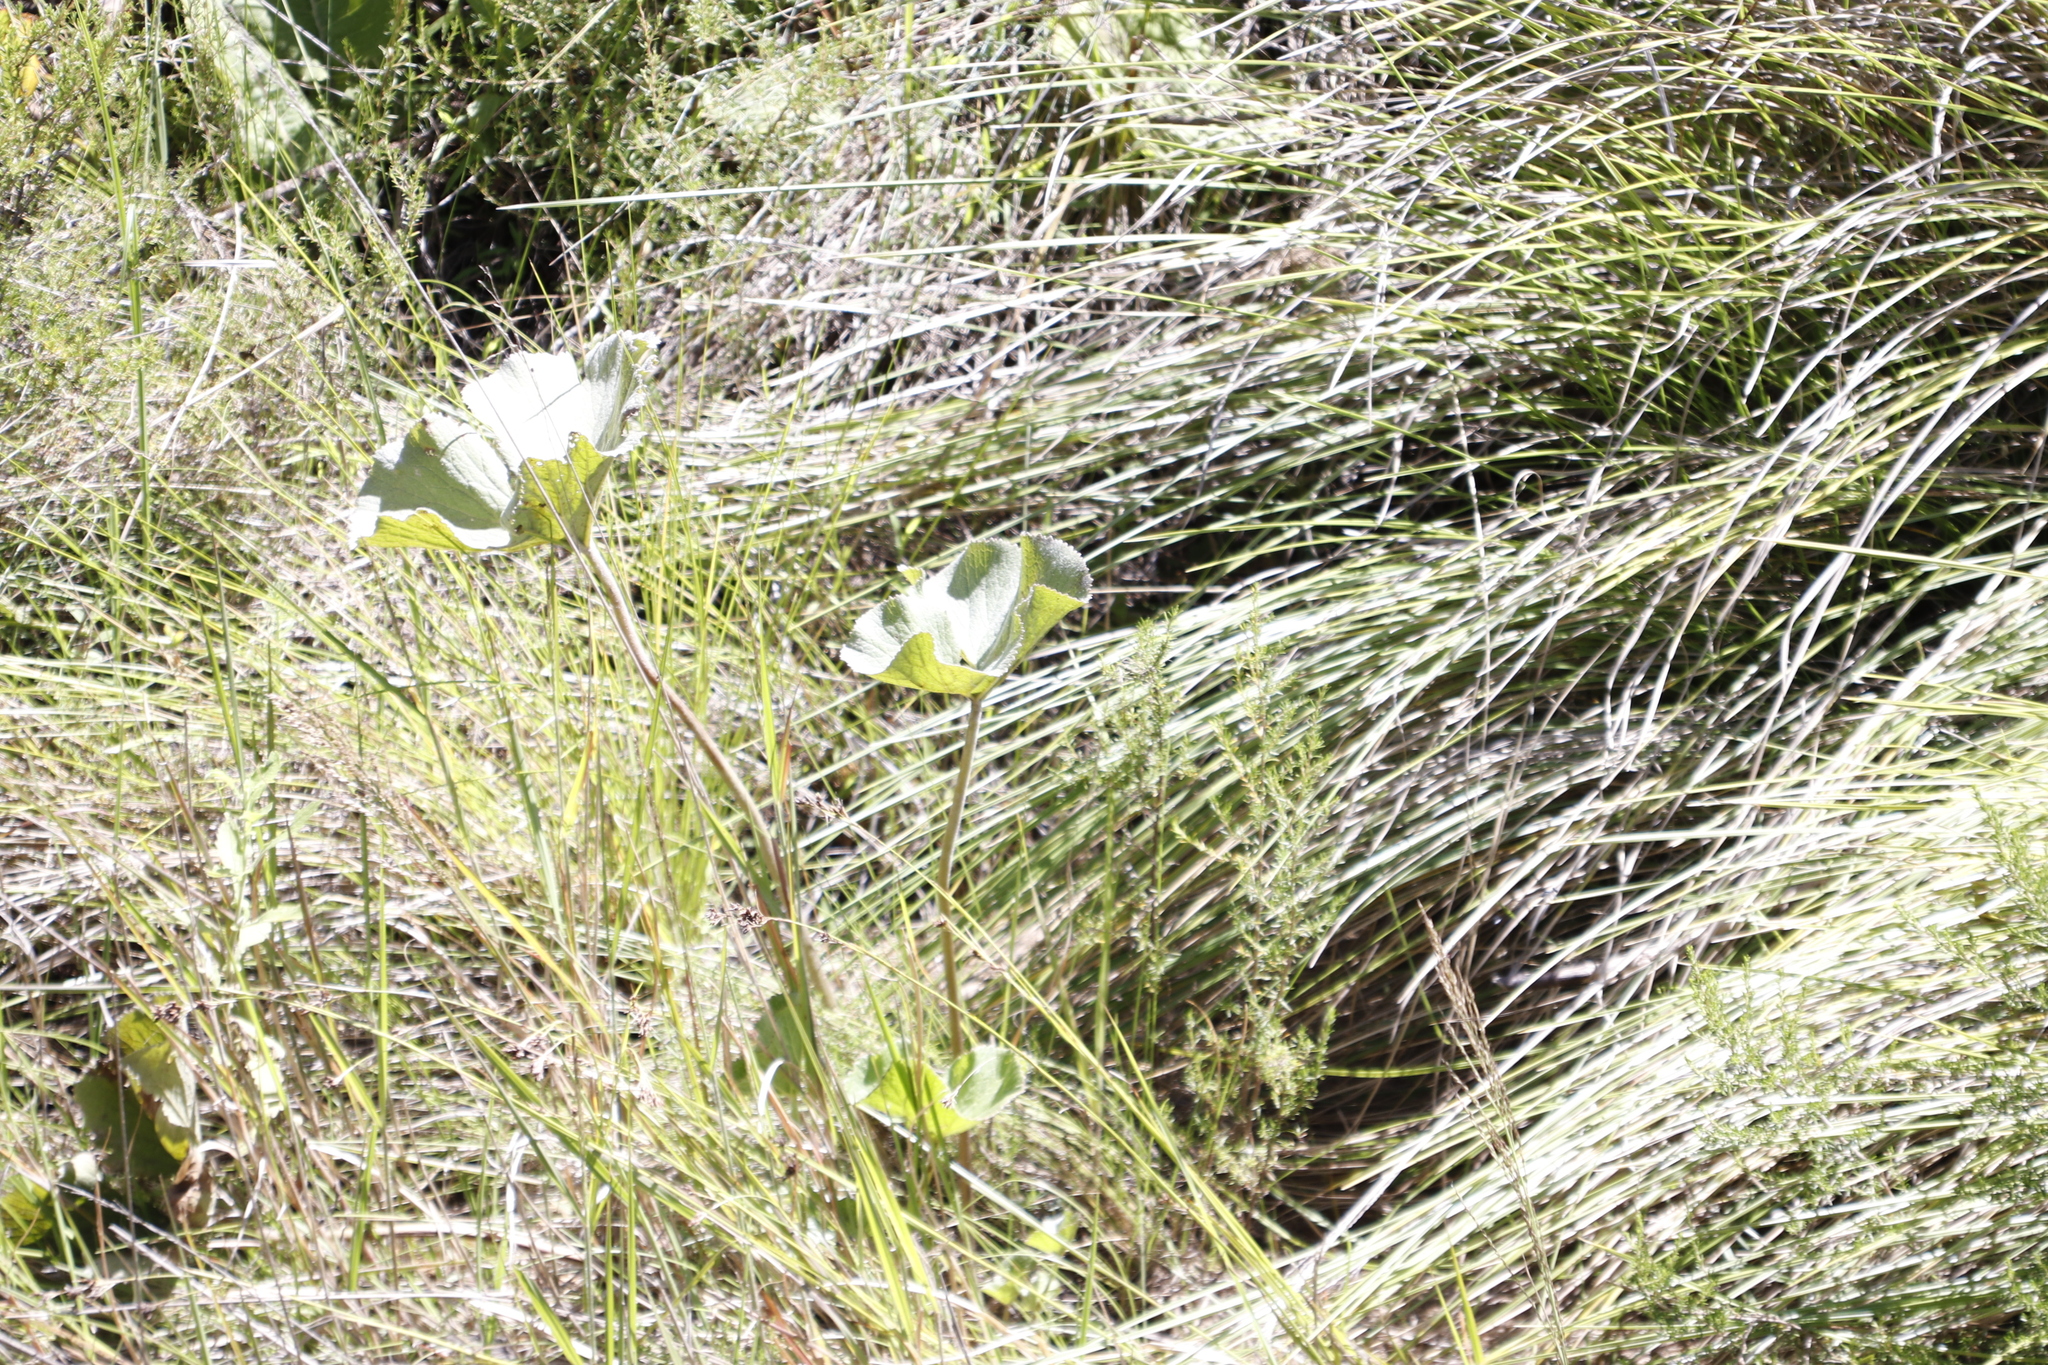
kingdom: Plantae
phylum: Tracheophyta
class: Magnoliopsida
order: Gunnerales
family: Gunneraceae
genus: Gunnera
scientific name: Gunnera perpensa
